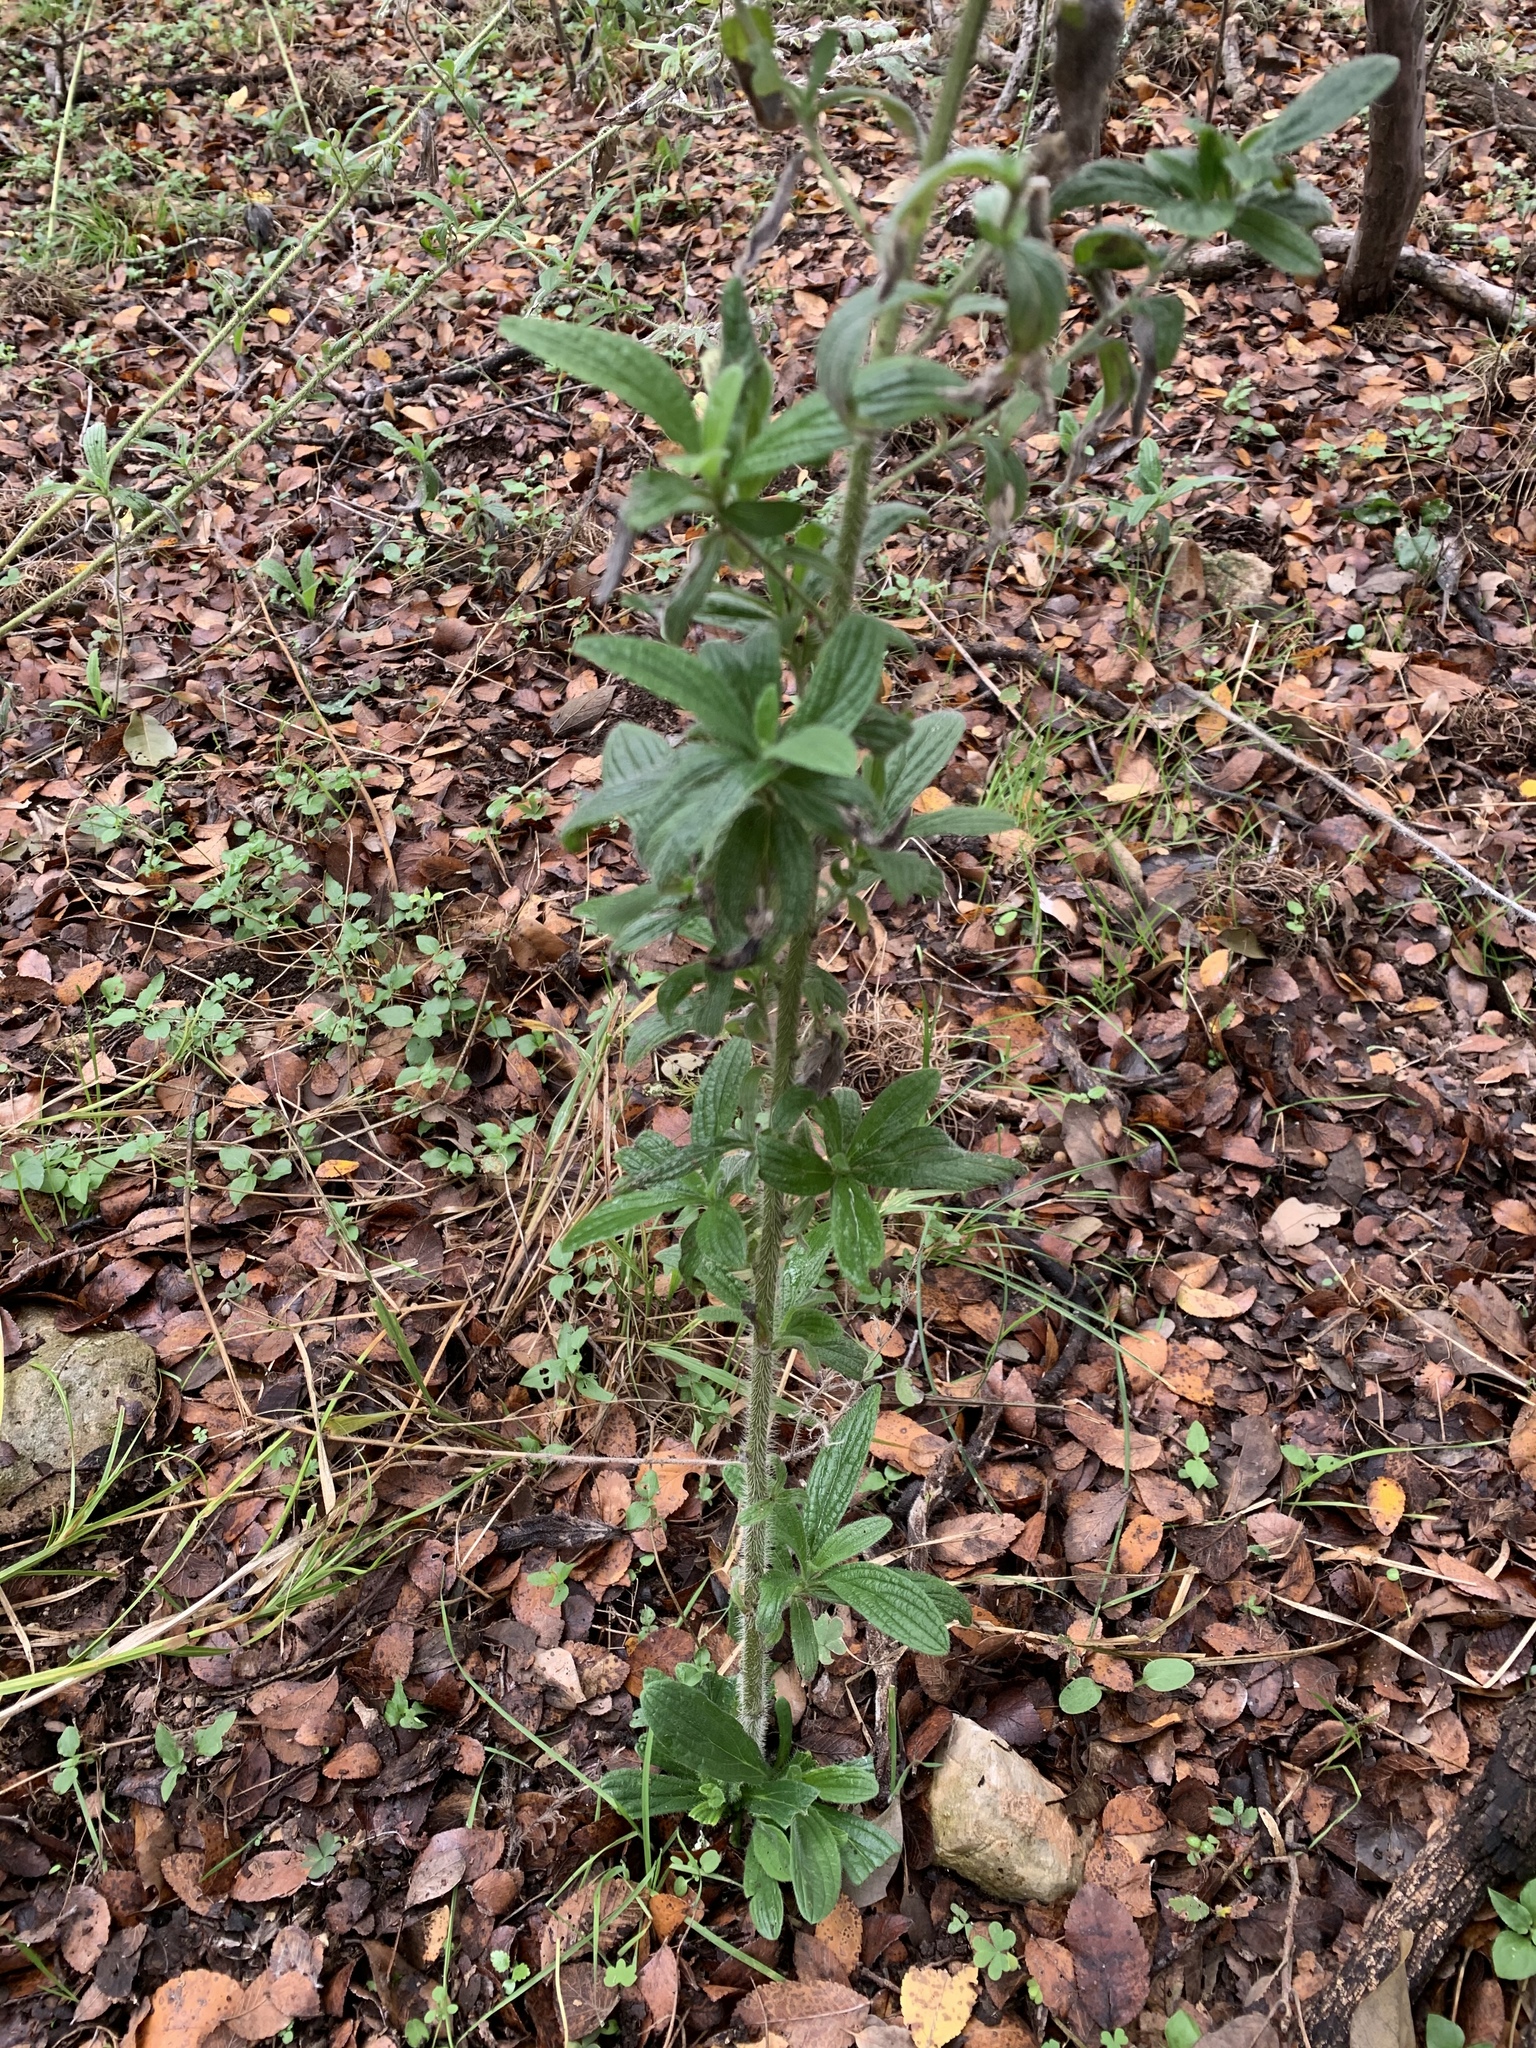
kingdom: Plantae
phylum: Tracheophyta
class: Magnoliopsida
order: Boraginales
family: Boraginaceae
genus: Lithospermum
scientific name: Lithospermum caroliniense
